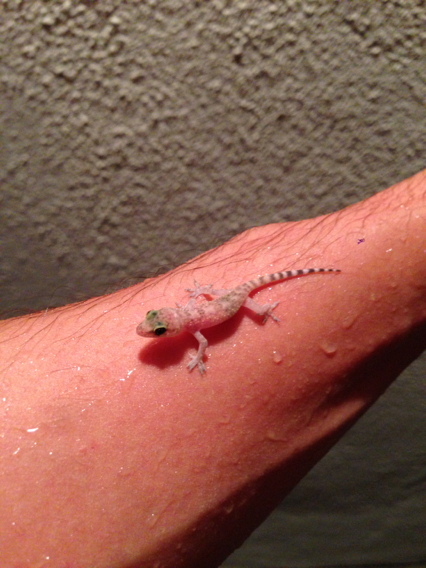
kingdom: Animalia
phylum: Chordata
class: Squamata
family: Gekkonidae
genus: Hemidactylus
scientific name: Hemidactylus turcicus
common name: Turkish gecko
